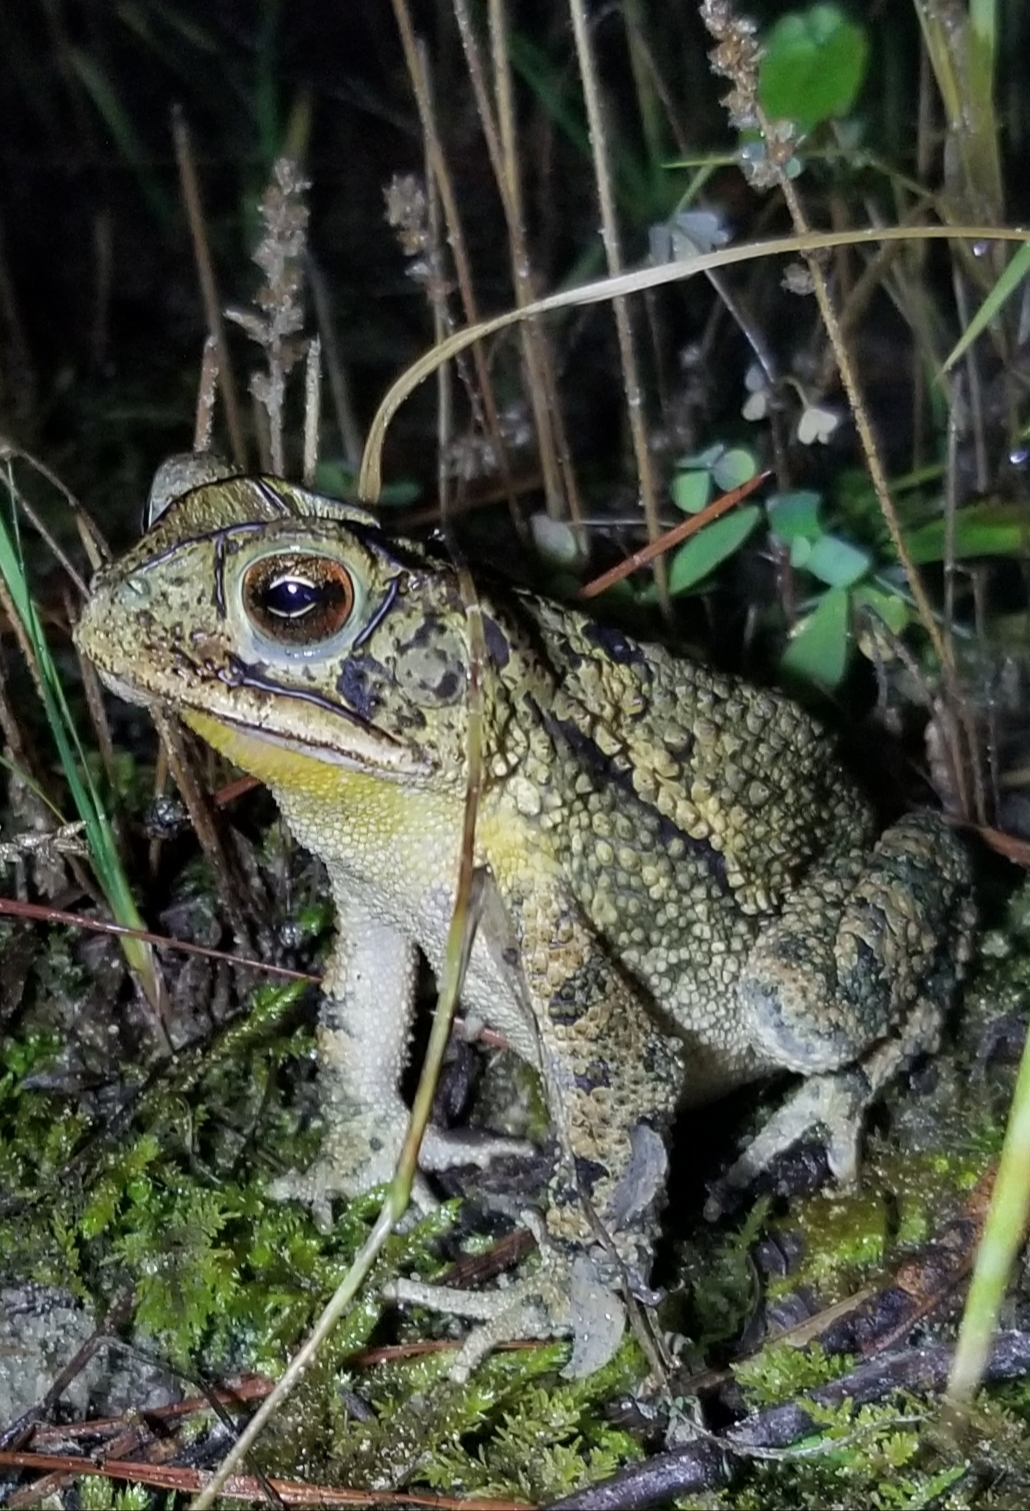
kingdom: Animalia
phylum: Chordata
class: Amphibia
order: Anura
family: Bufonidae
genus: Incilius
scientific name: Incilius nebulifer
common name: Gulf coast toad
